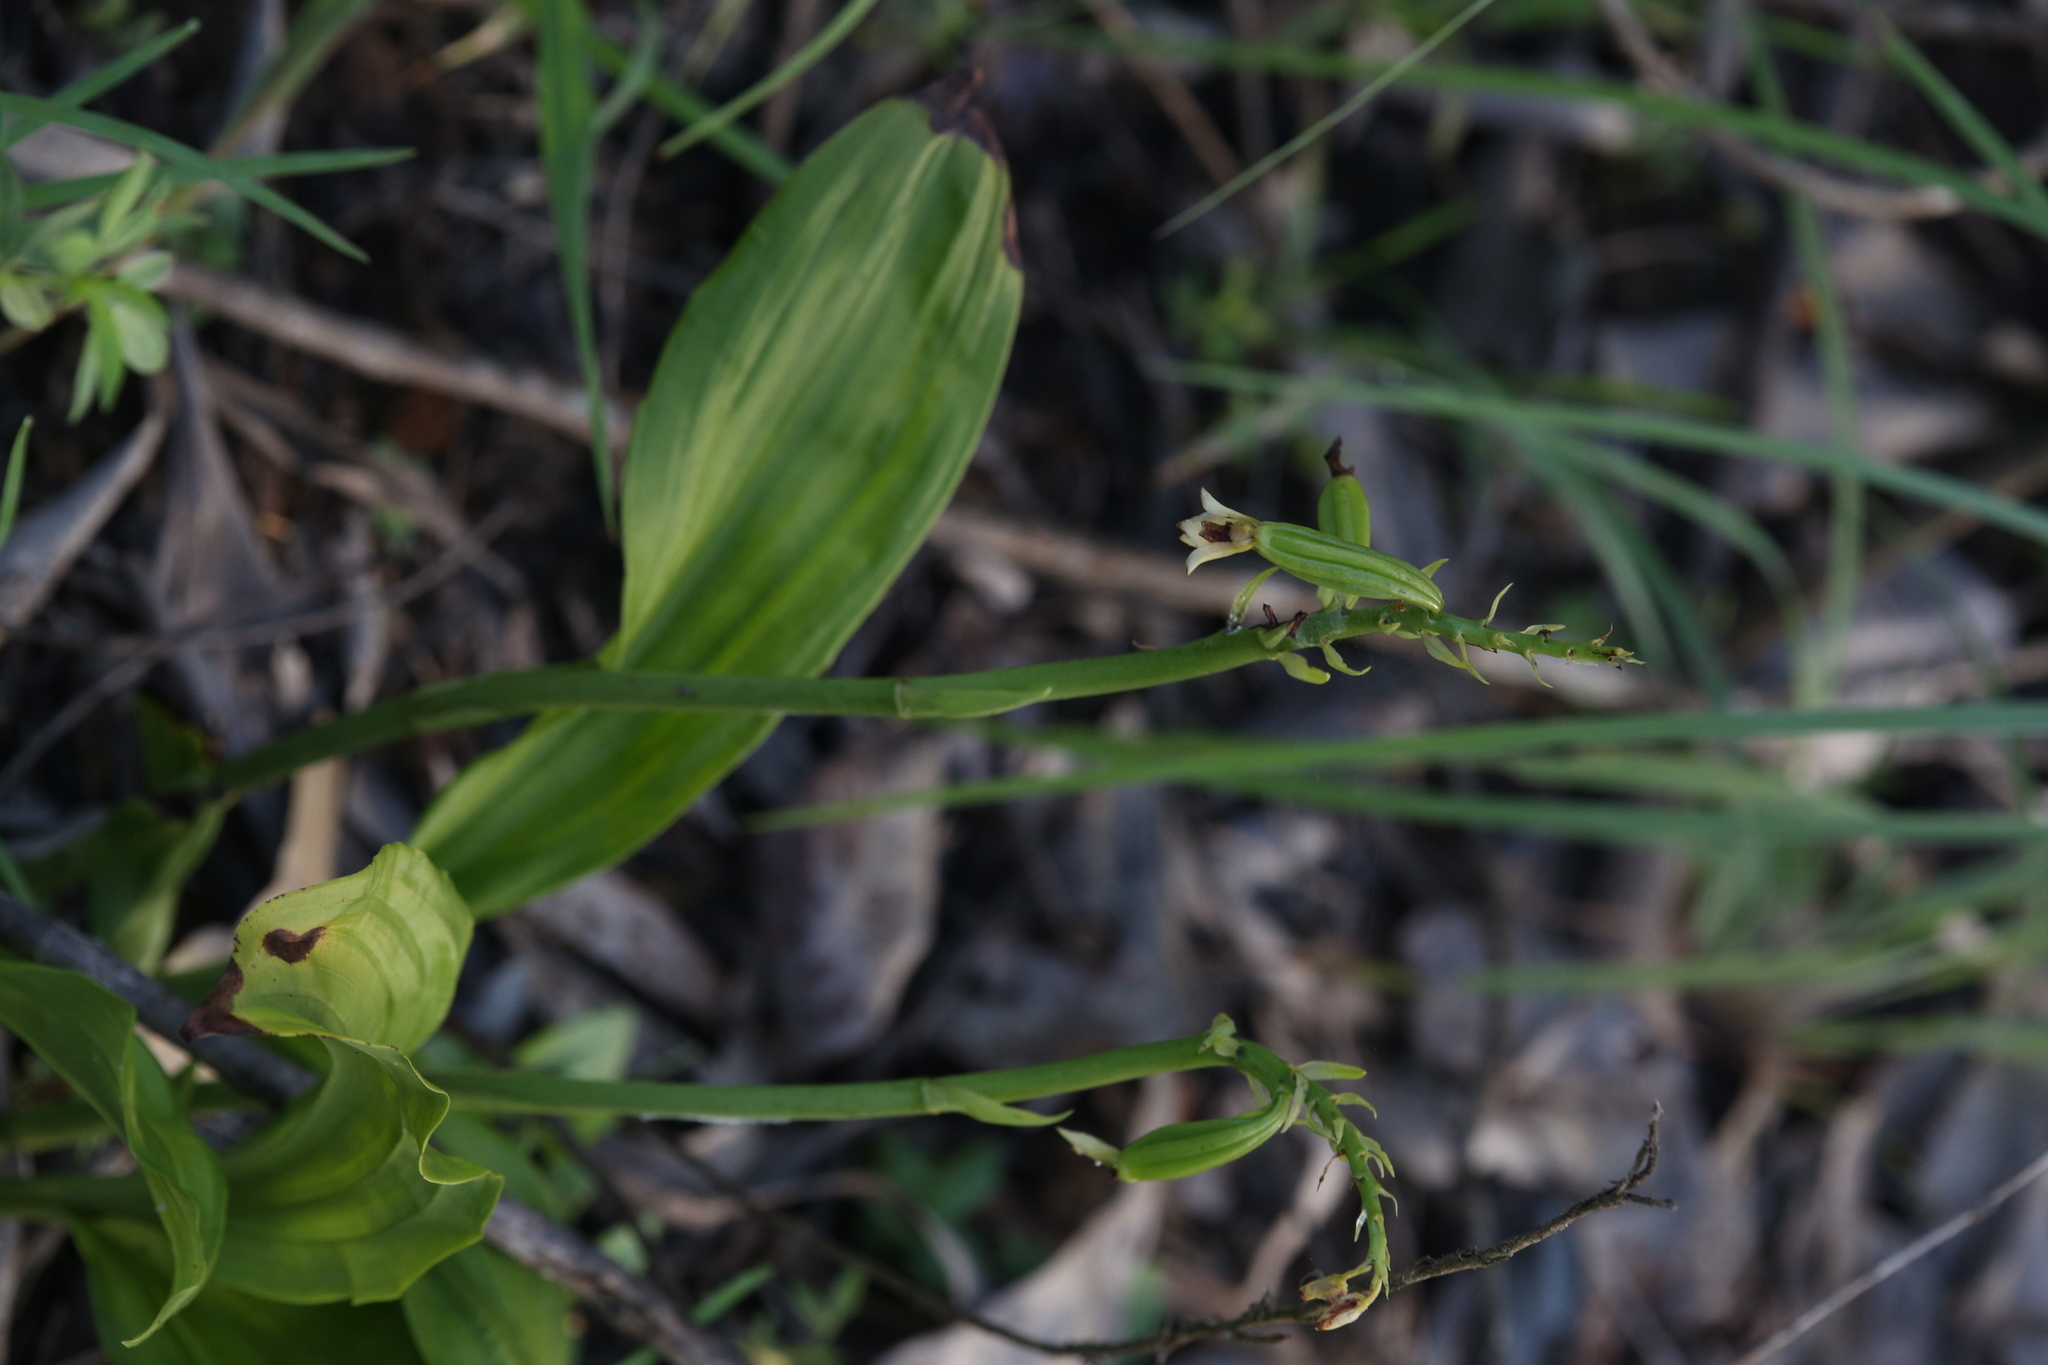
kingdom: Plantae
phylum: Tracheophyta
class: Liliopsida
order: Asparagales
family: Orchidaceae
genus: Eulophia
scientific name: Eulophia cernua
